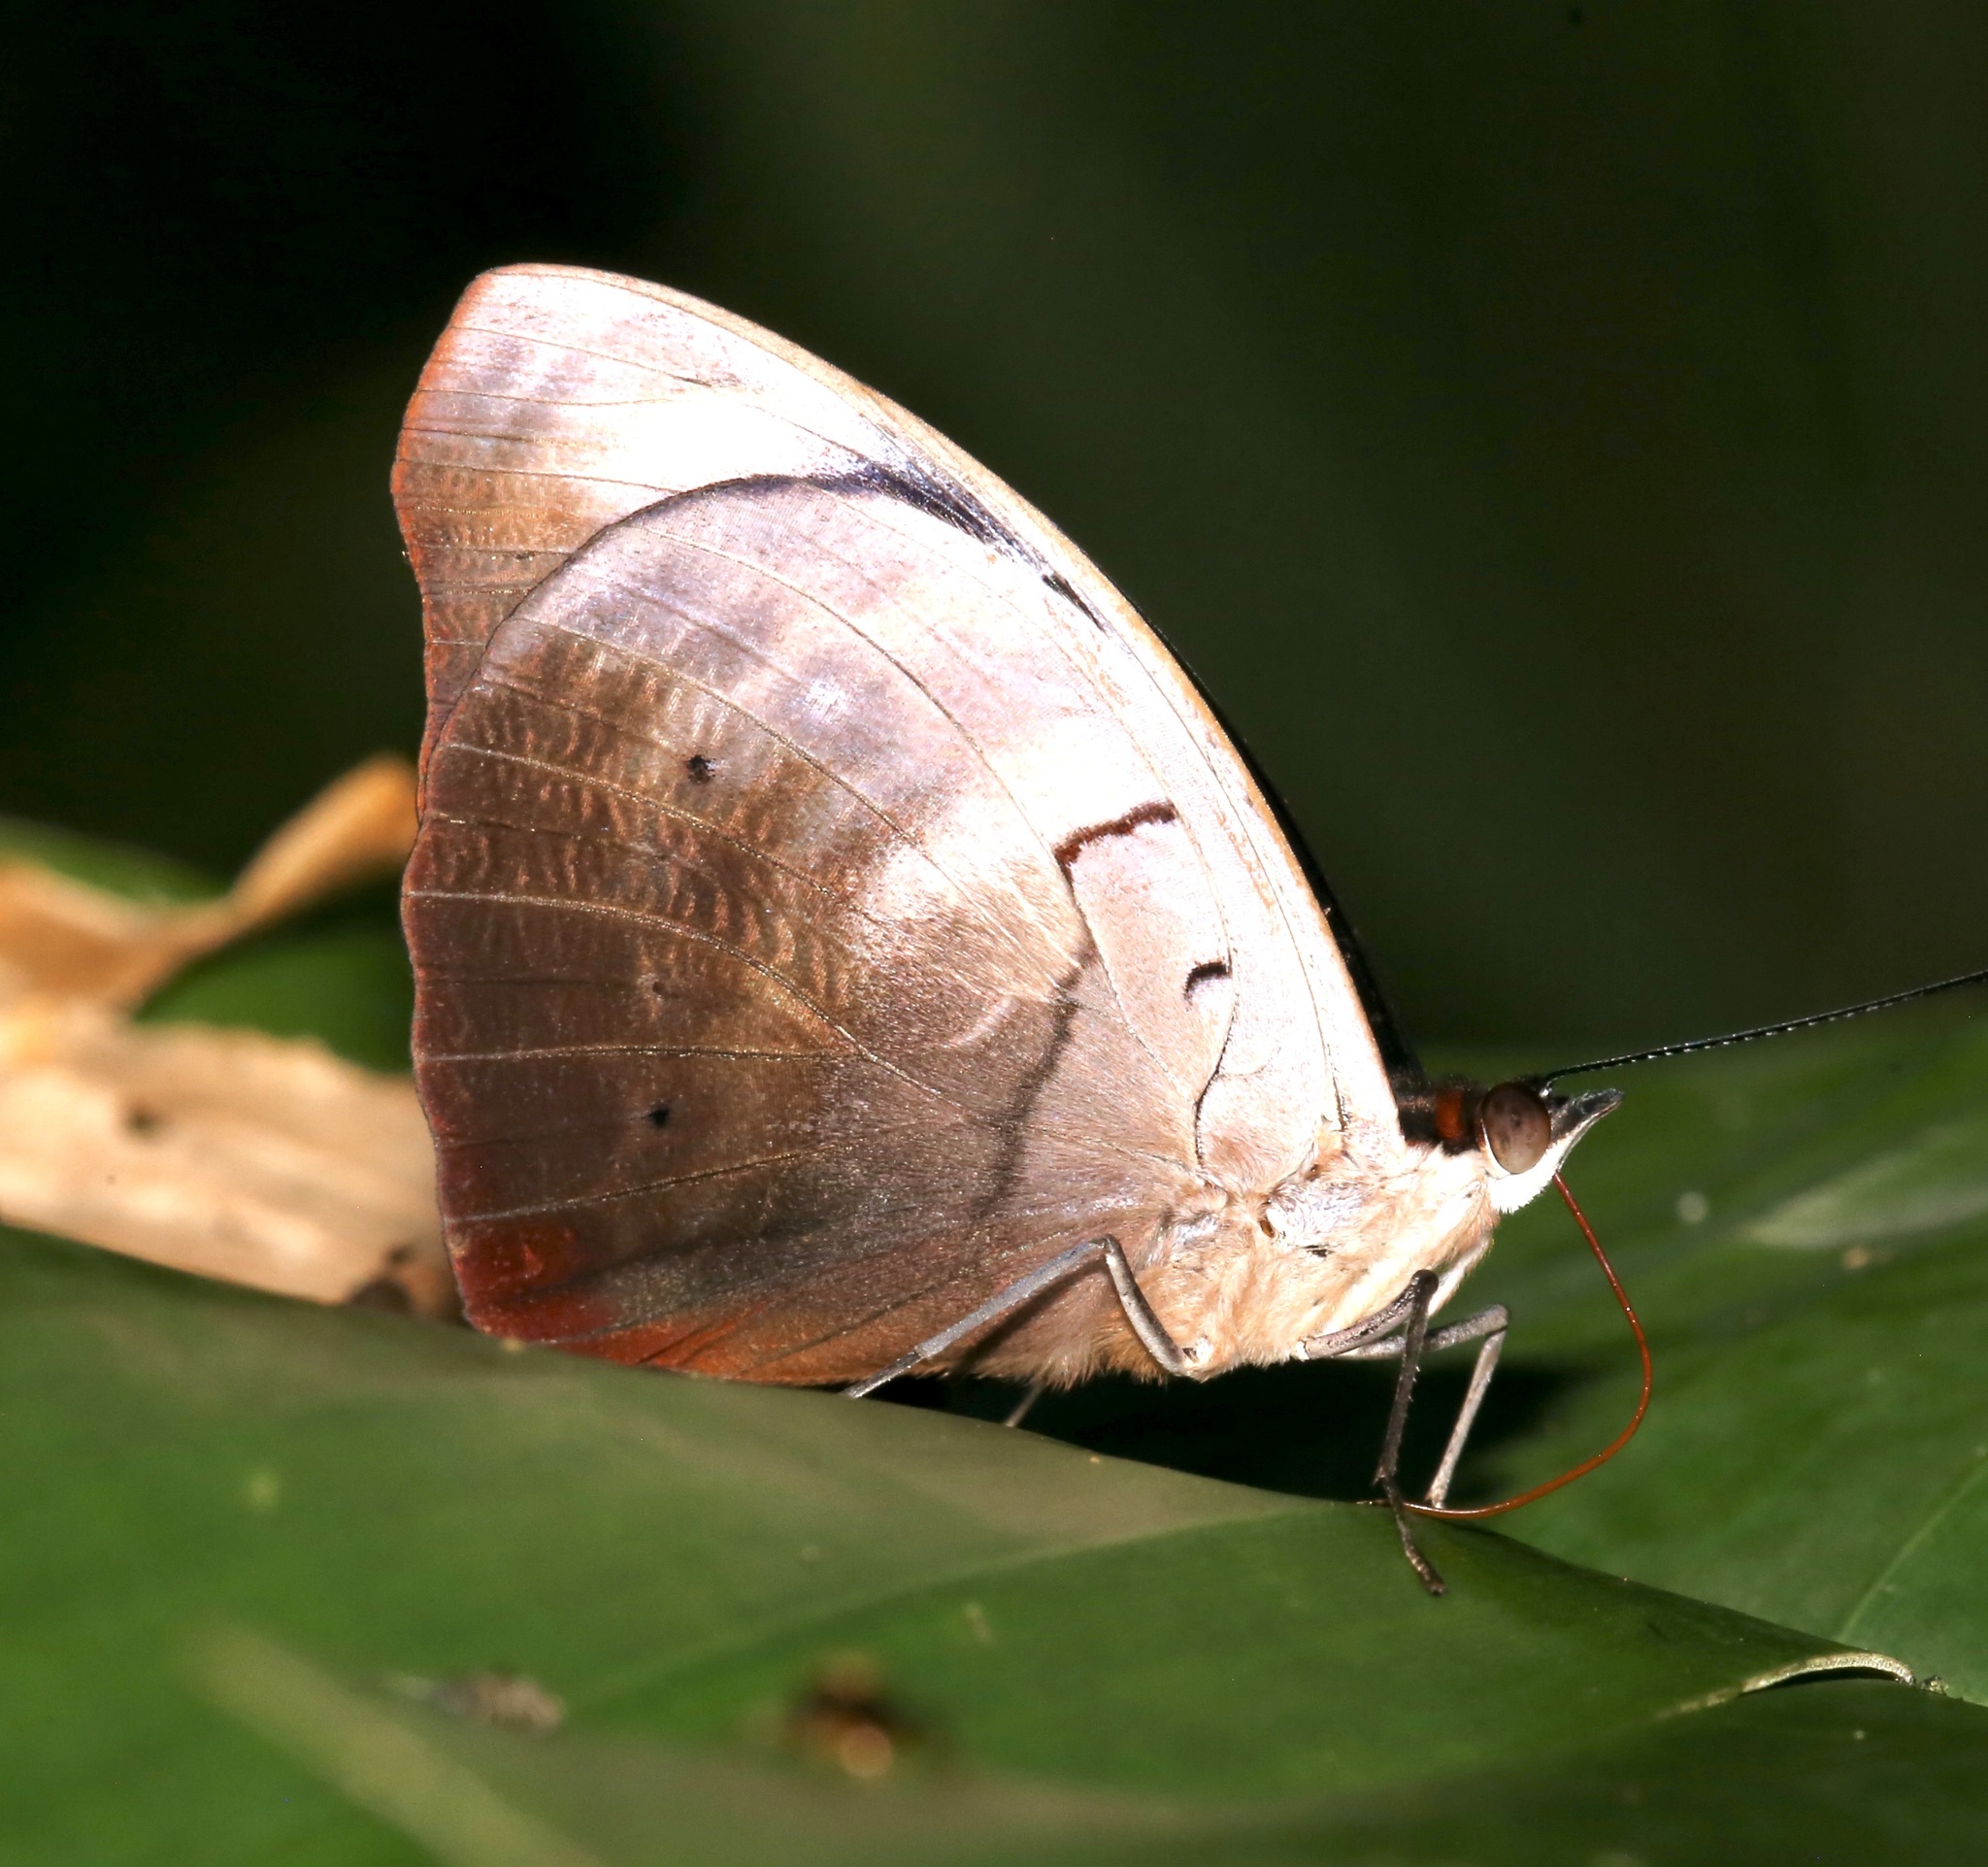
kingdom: Animalia
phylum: Arthropoda
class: Insecta
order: Lepidoptera
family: Nymphalidae
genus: Catonephele
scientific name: Catonephele numilia
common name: Blue-frosted banner
